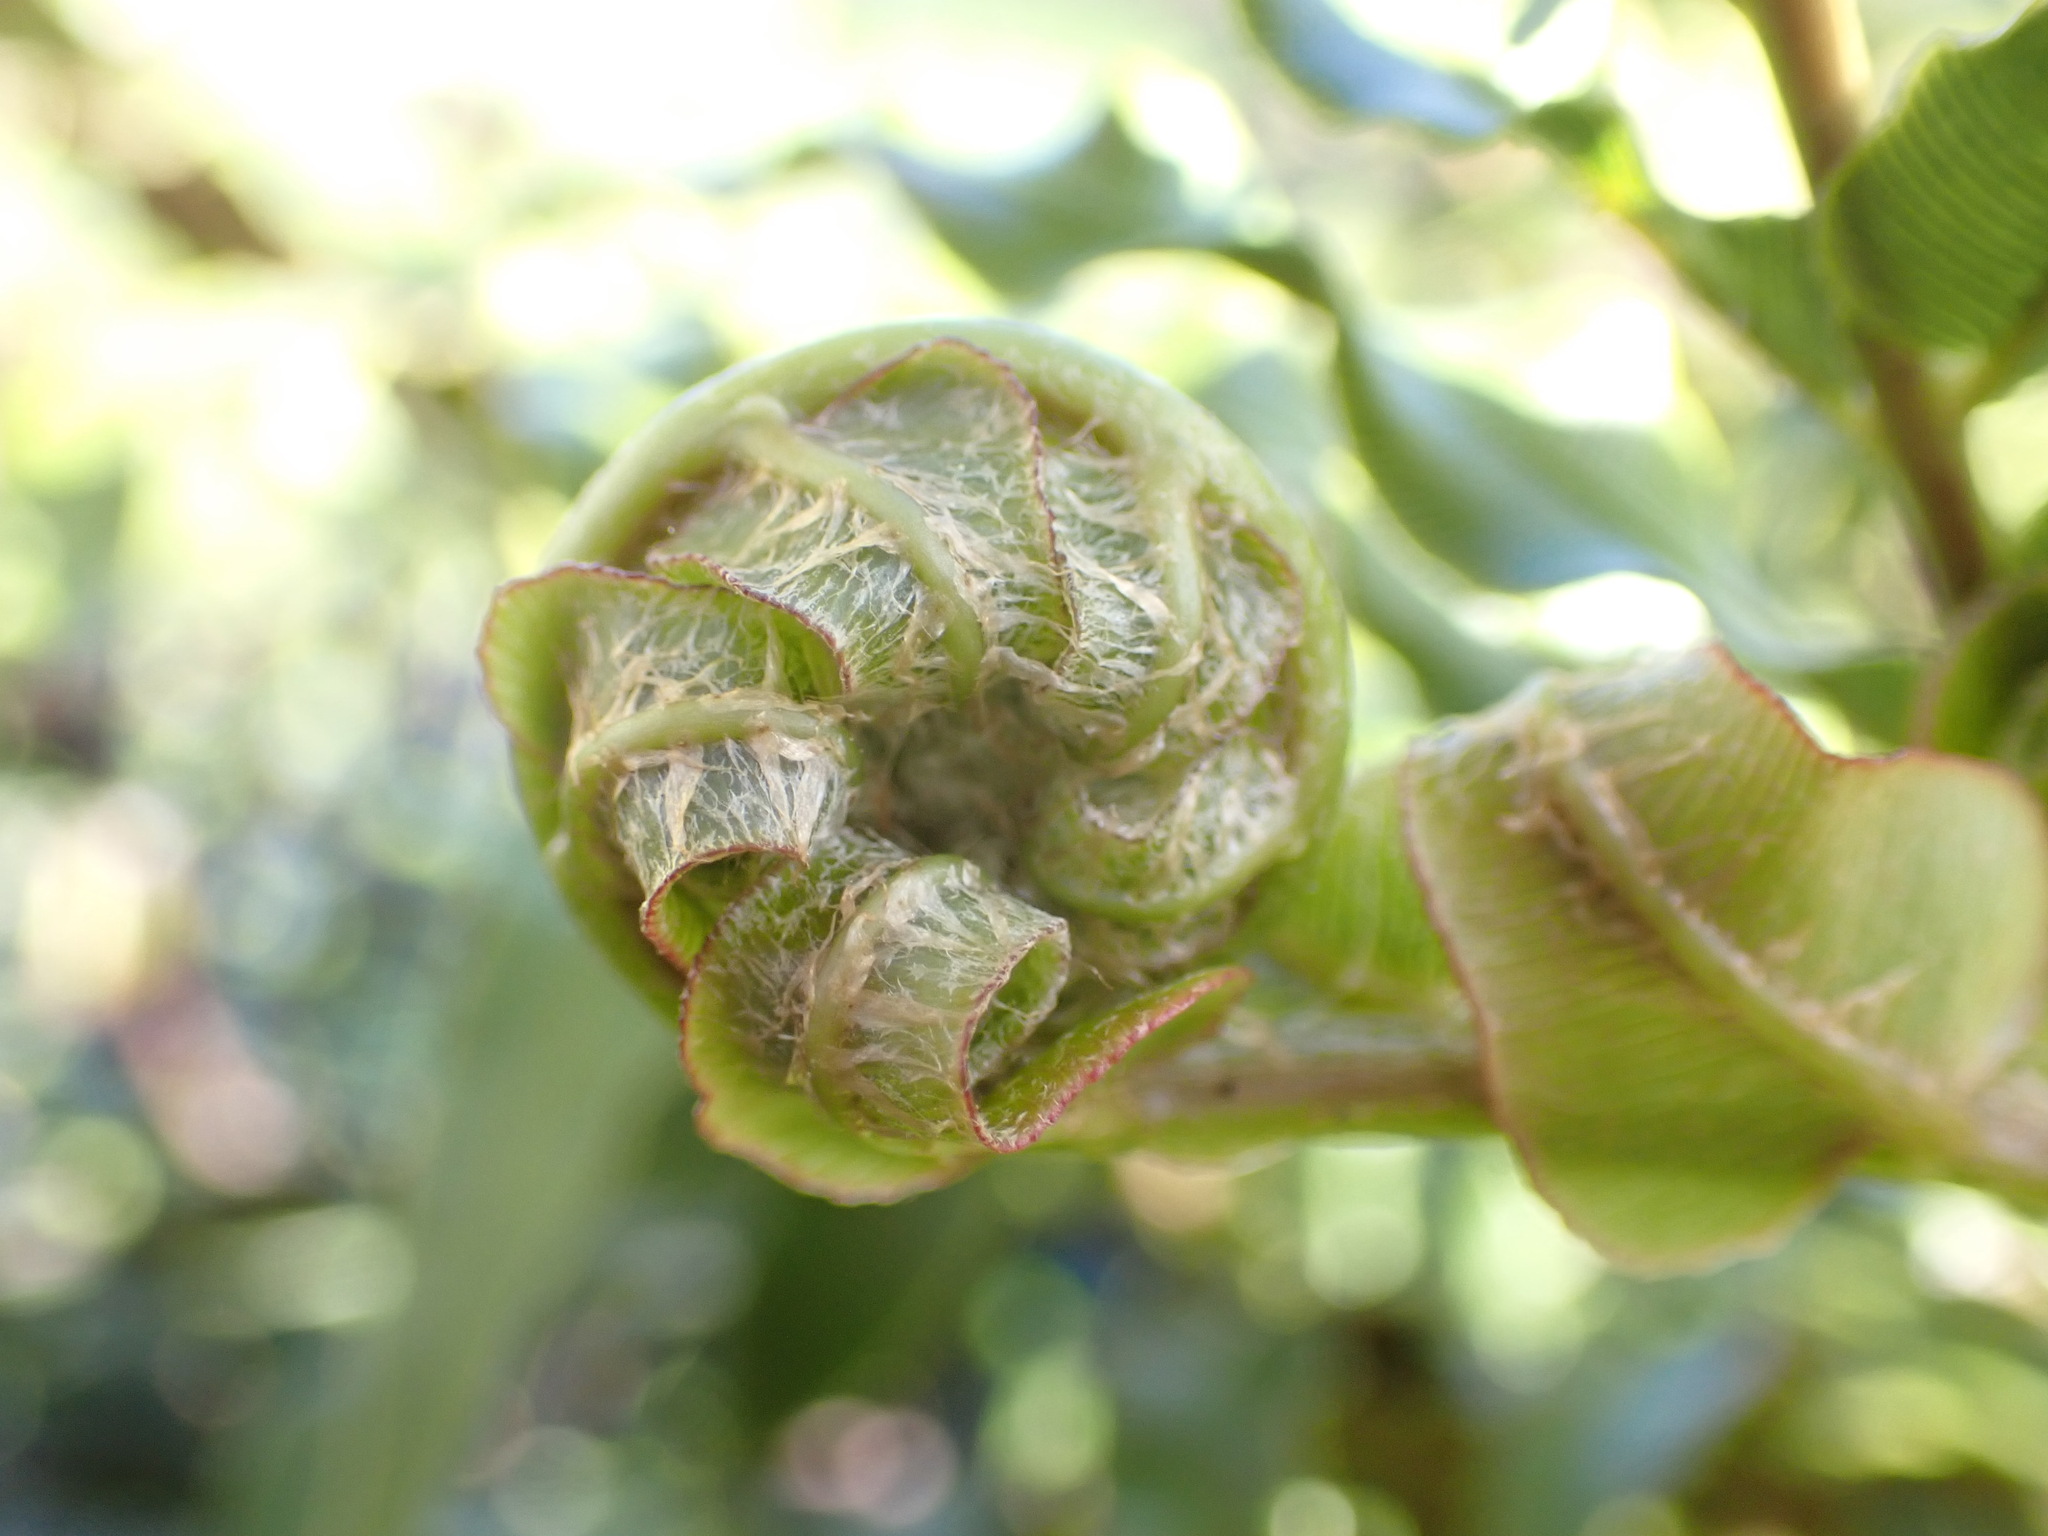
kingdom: Plantae
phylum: Tracheophyta
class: Polypodiopsida
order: Polypodiales
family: Blechnaceae
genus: Parablechnum
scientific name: Parablechnum minus
